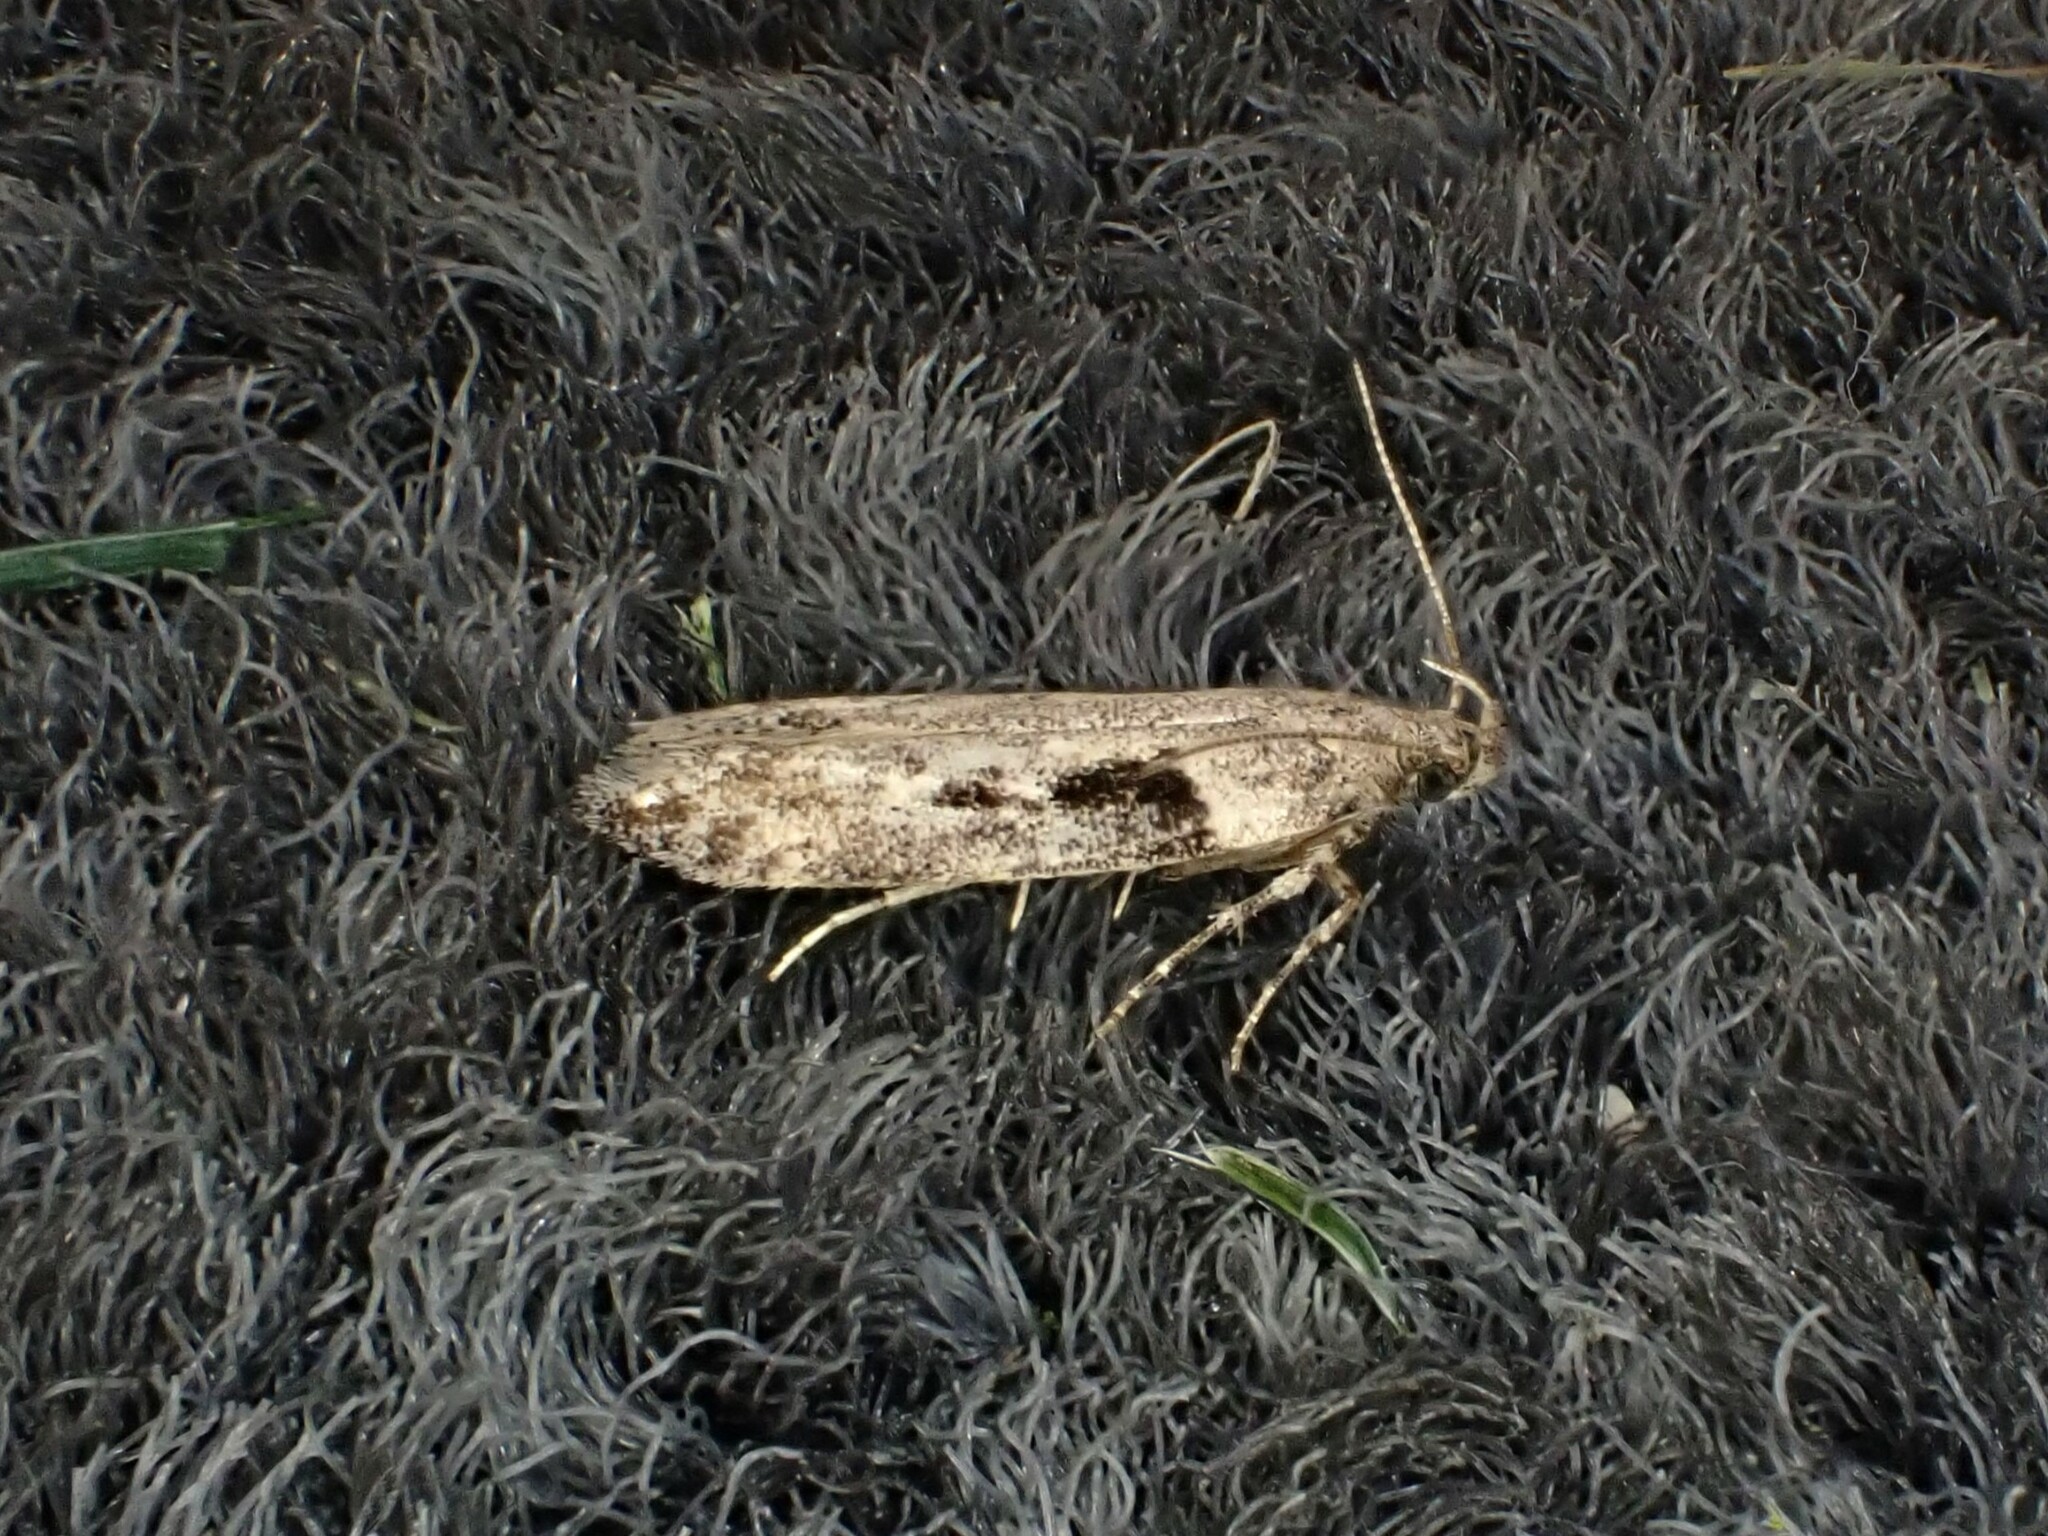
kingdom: Animalia
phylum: Arthropoda
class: Insecta
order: Lepidoptera
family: Gelechiidae
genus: Symmetrischema
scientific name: Symmetrischema tangolias
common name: Moth
